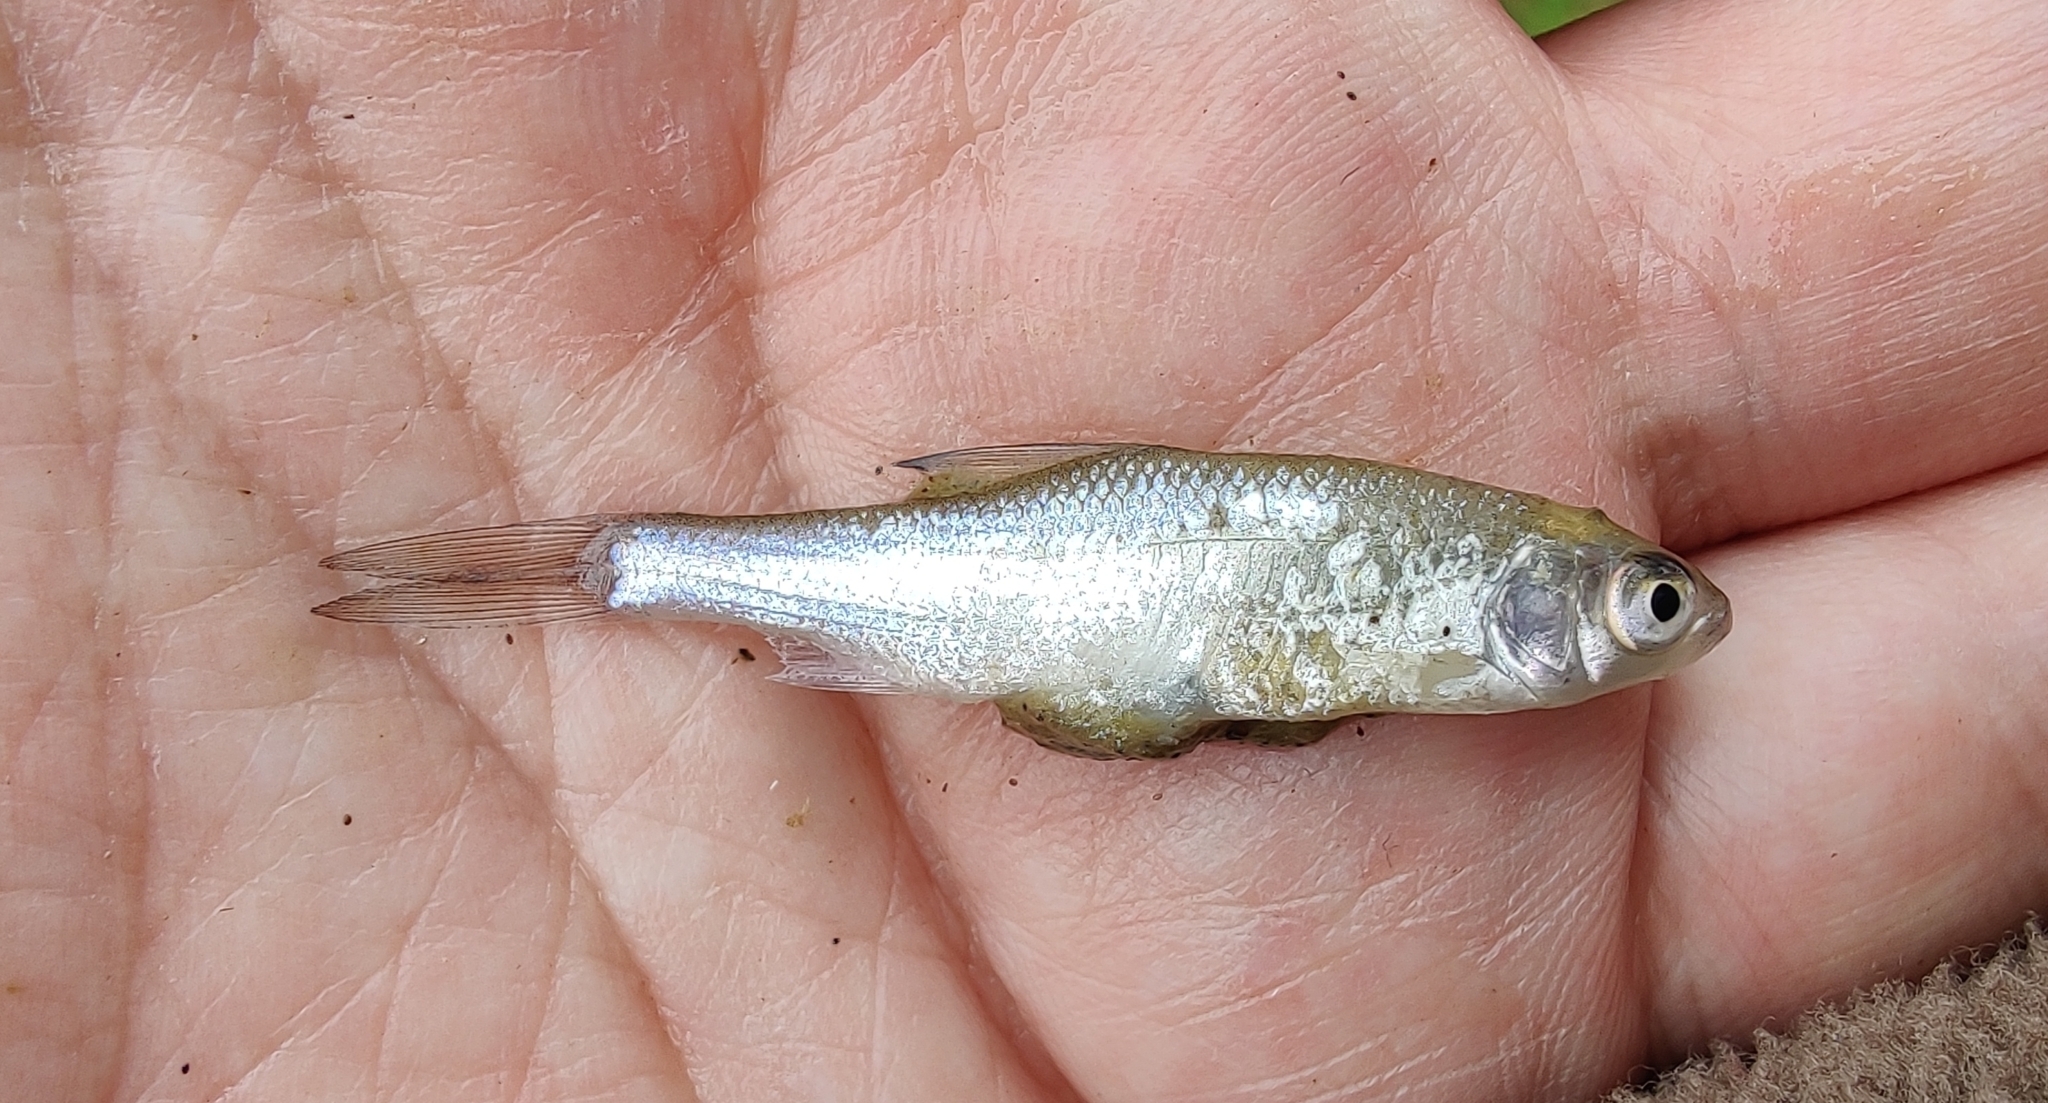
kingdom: Animalia
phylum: Chordata
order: Cypriniformes
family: Cyprinidae
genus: Rutilus
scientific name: Rutilus rutilus
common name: Roach
